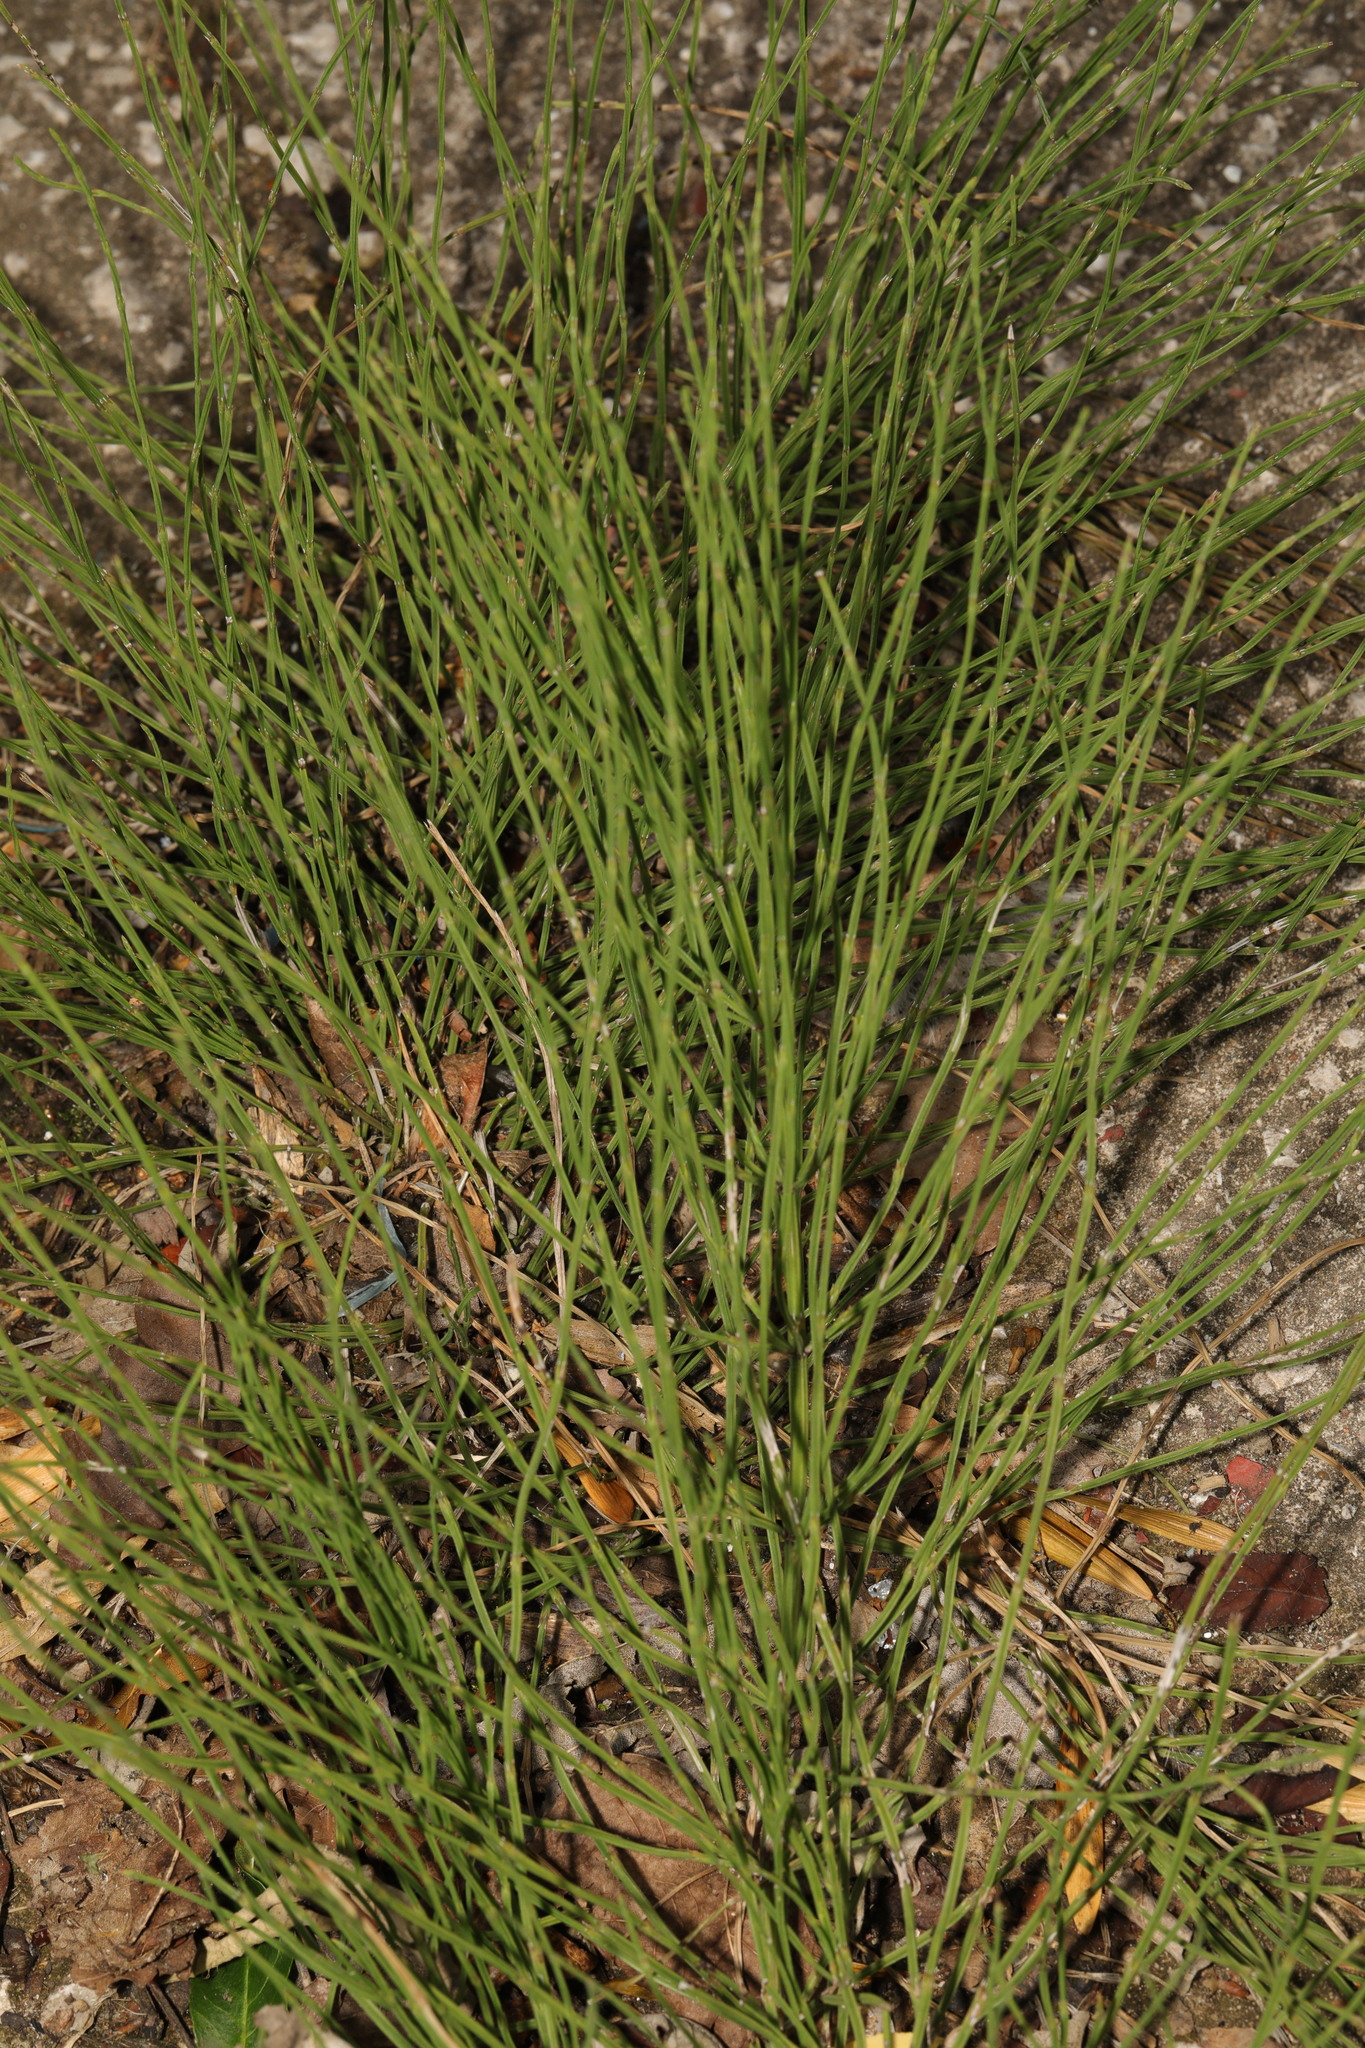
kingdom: Plantae
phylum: Tracheophyta
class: Polypodiopsida
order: Equisetales
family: Equisetaceae
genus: Equisetum
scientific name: Equisetum arvense
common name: Field horsetail
